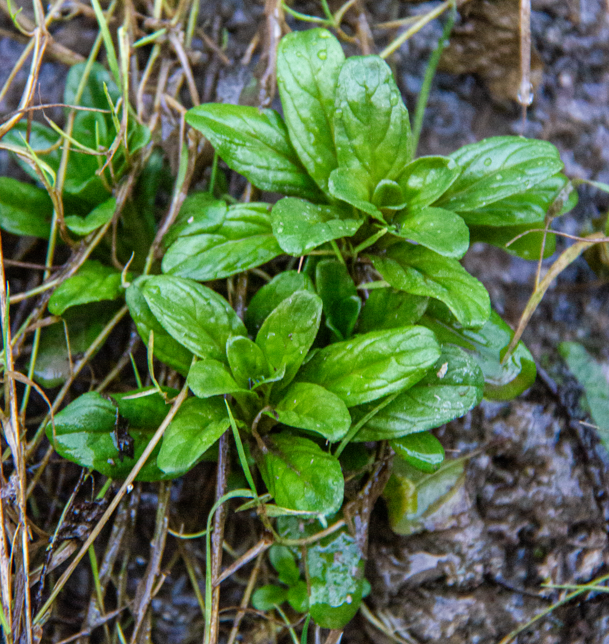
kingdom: Plantae
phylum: Tracheophyta
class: Magnoliopsida
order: Myrtales
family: Onagraceae
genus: Epilobium
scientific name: Epilobium
